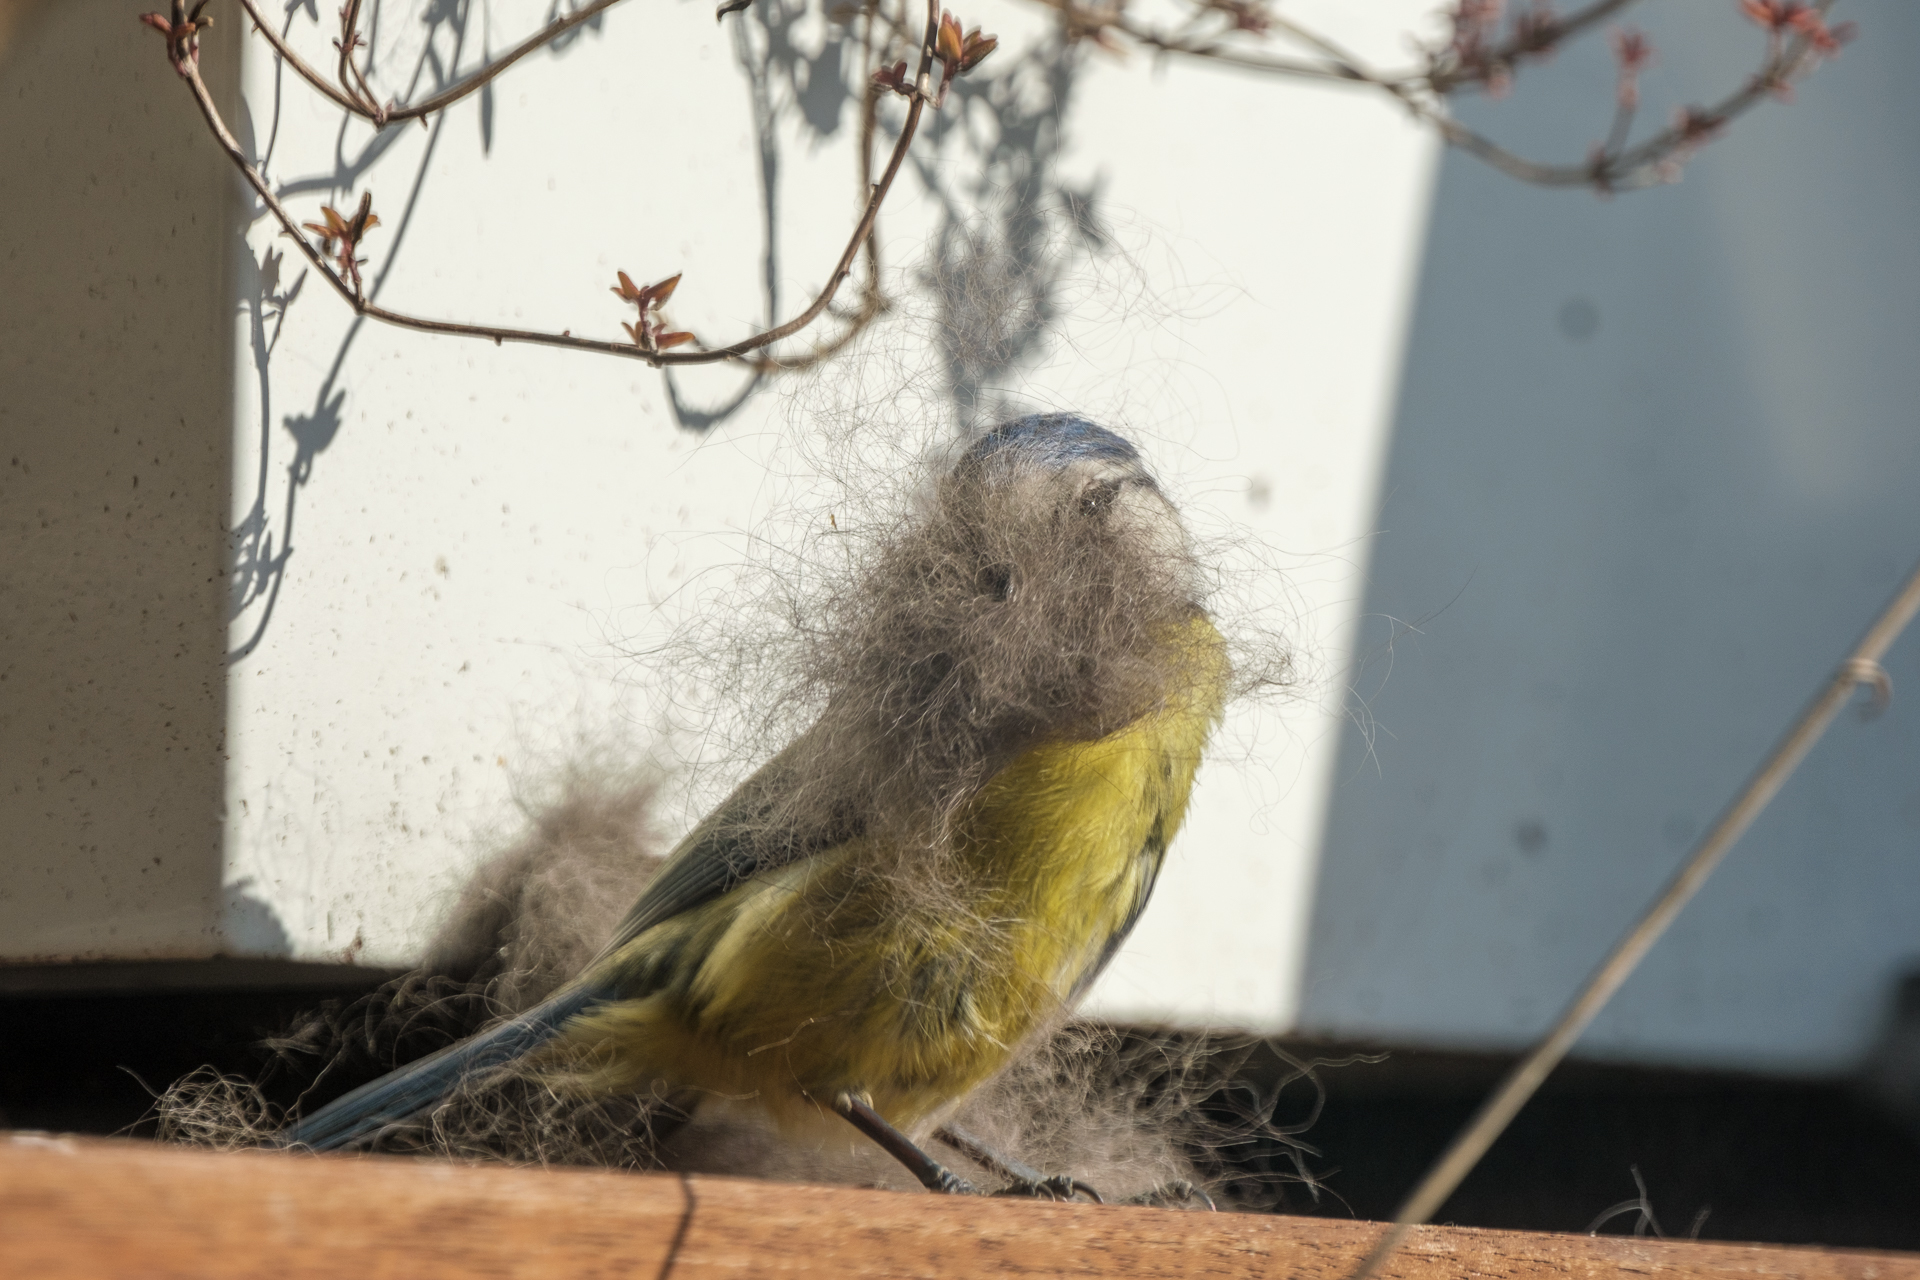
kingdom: Animalia
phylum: Chordata
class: Aves
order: Passeriformes
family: Paridae
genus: Cyanistes
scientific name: Cyanistes caeruleus
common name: Eurasian blue tit
